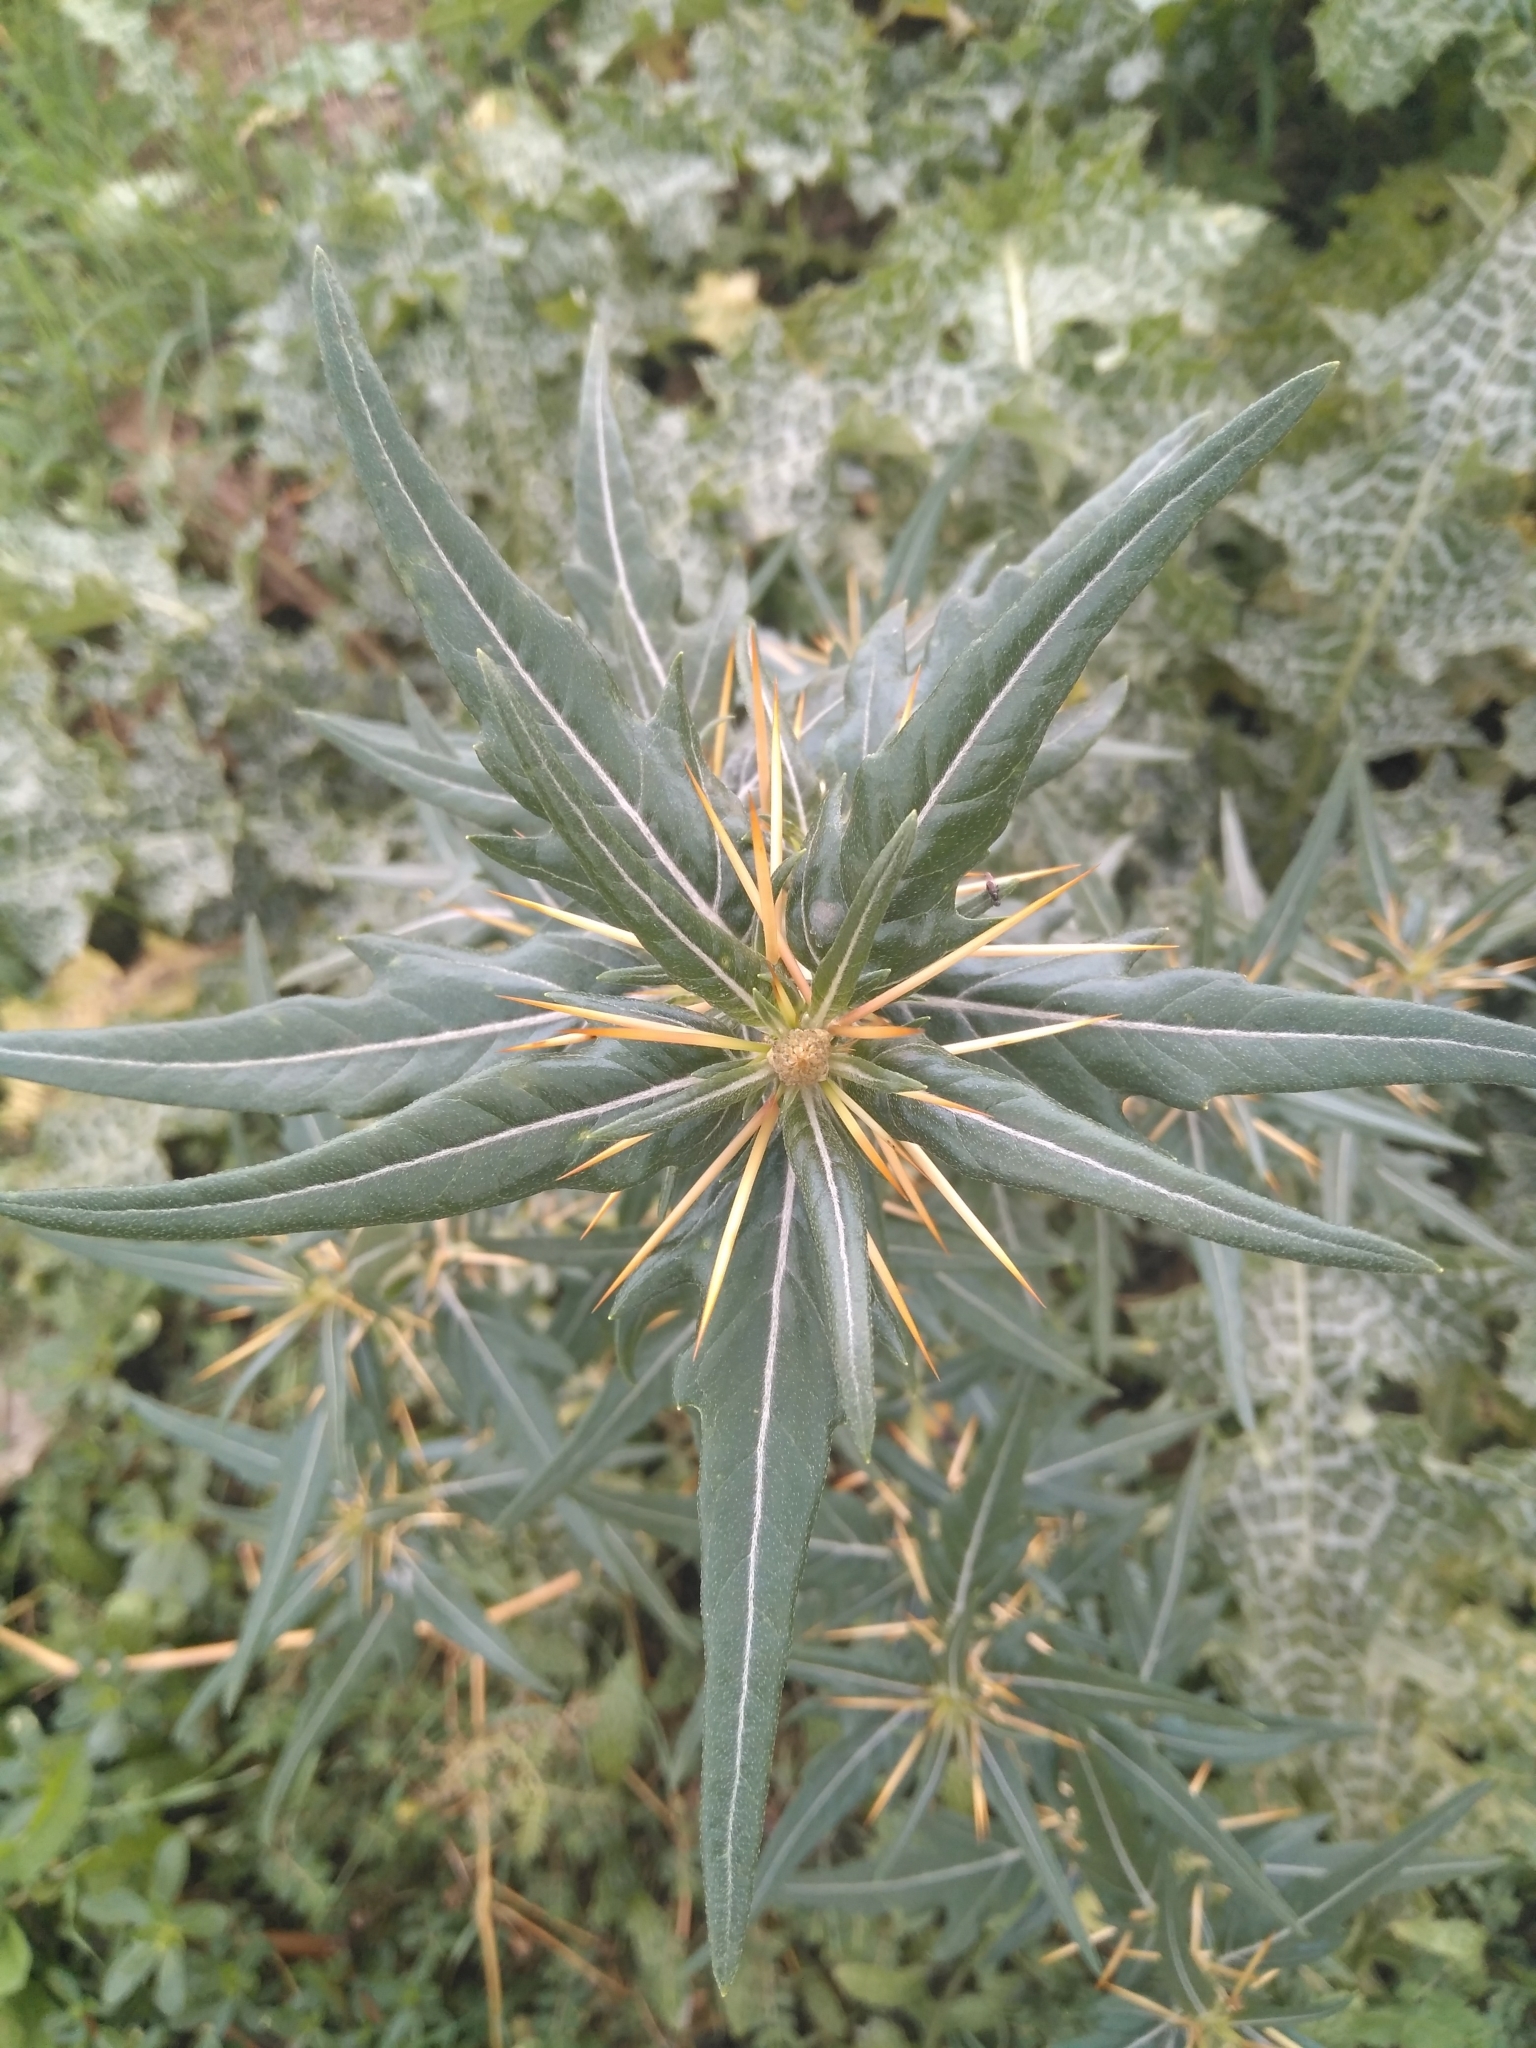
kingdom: Plantae
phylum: Tracheophyta
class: Magnoliopsida
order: Asterales
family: Asteraceae
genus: Xanthium
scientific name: Xanthium spinosum
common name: Spiny cocklebur
